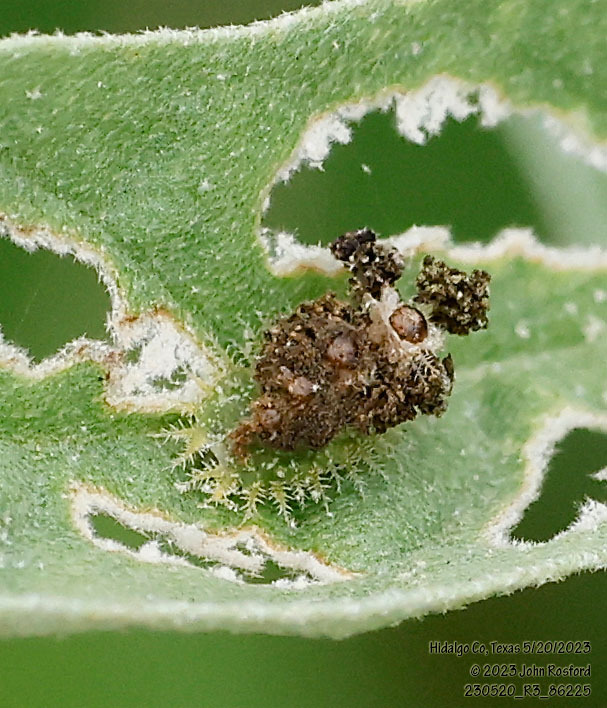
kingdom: Animalia
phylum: Arthropoda
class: Insecta
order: Coleoptera
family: Chrysomelidae
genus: Gratiana
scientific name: Gratiana pallidula
